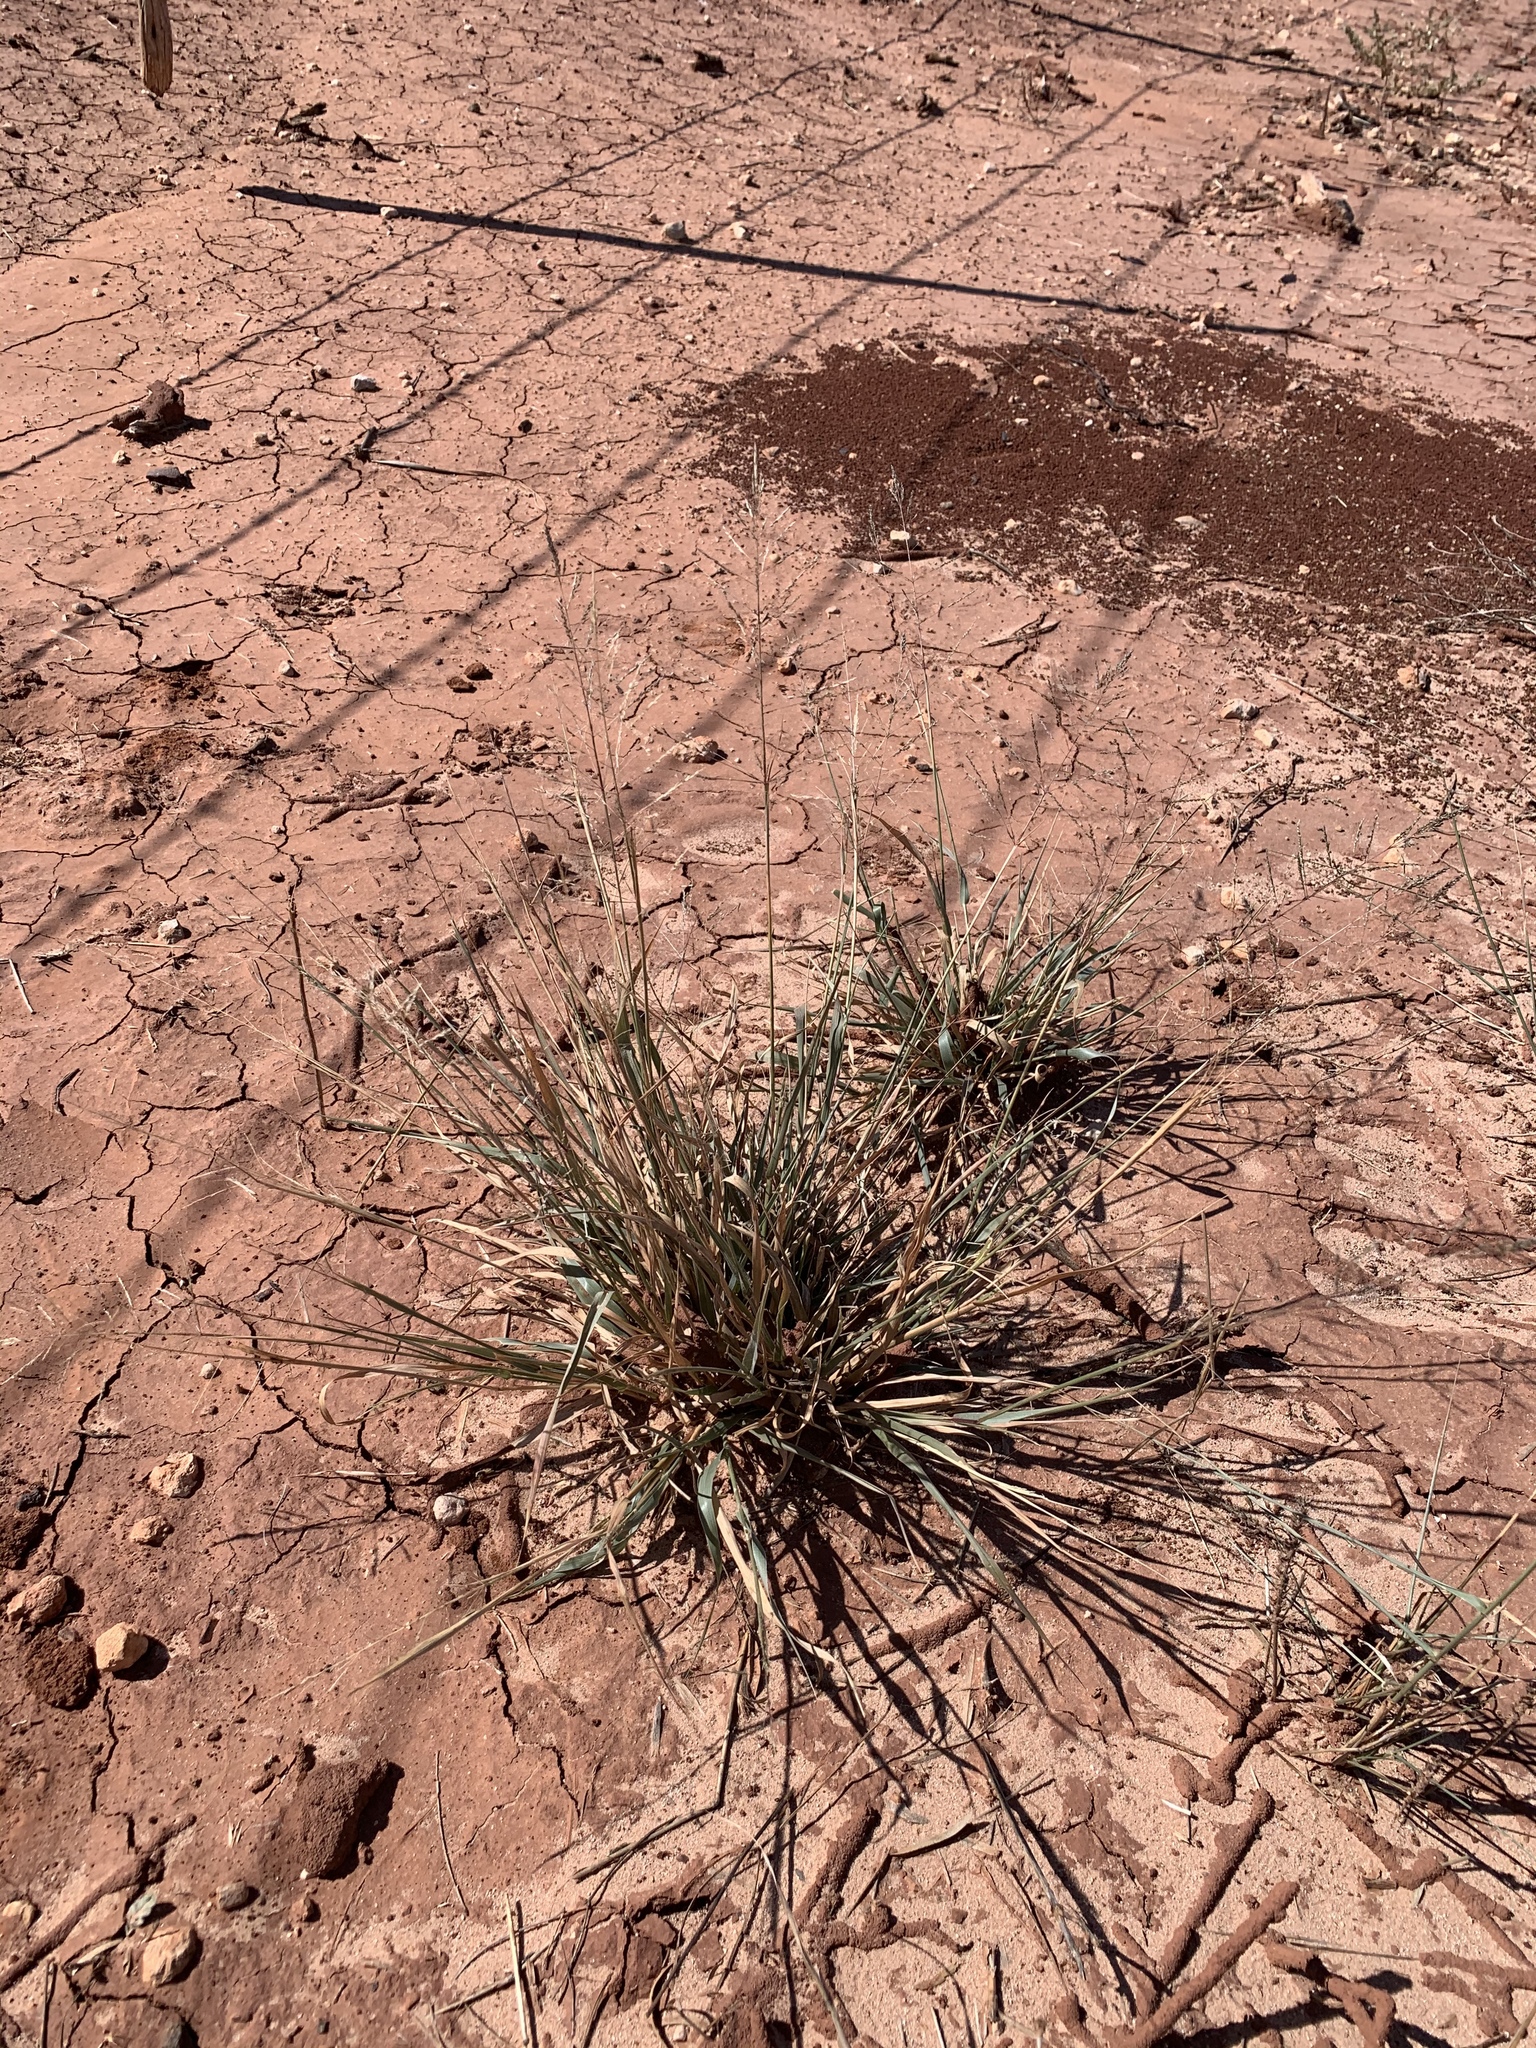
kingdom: Plantae
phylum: Tracheophyta
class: Liliopsida
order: Poales
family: Poaceae
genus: Sporobolus
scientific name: Sporobolus pyramidatus
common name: Whorled dropseed
